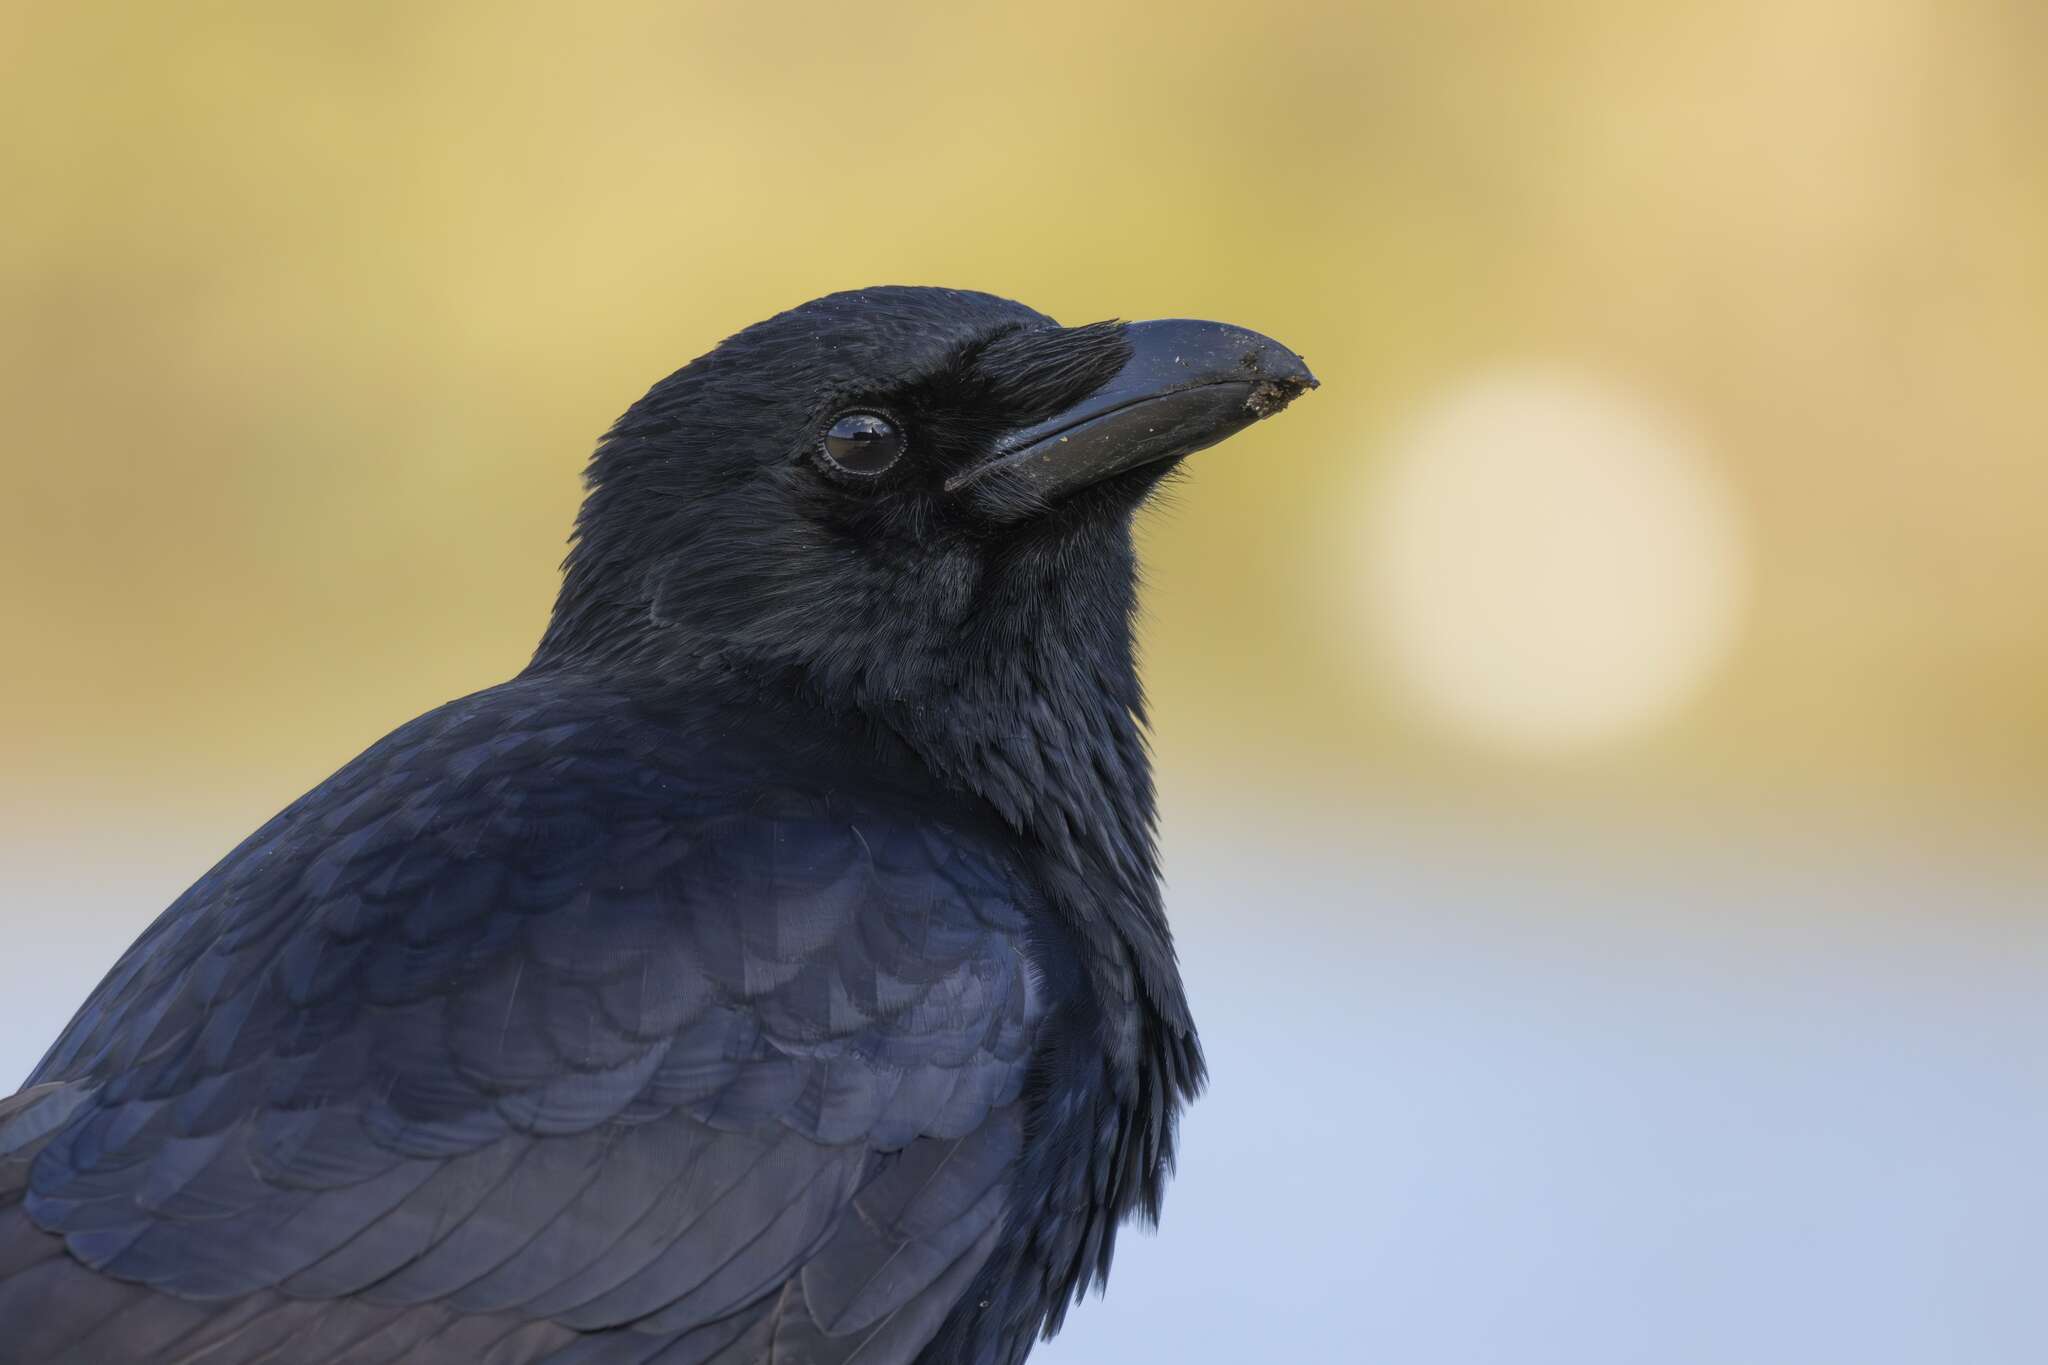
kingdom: Animalia
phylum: Chordata
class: Aves
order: Passeriformes
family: Corvidae
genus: Corvus
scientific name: Corvus corone
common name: Carrion crow
